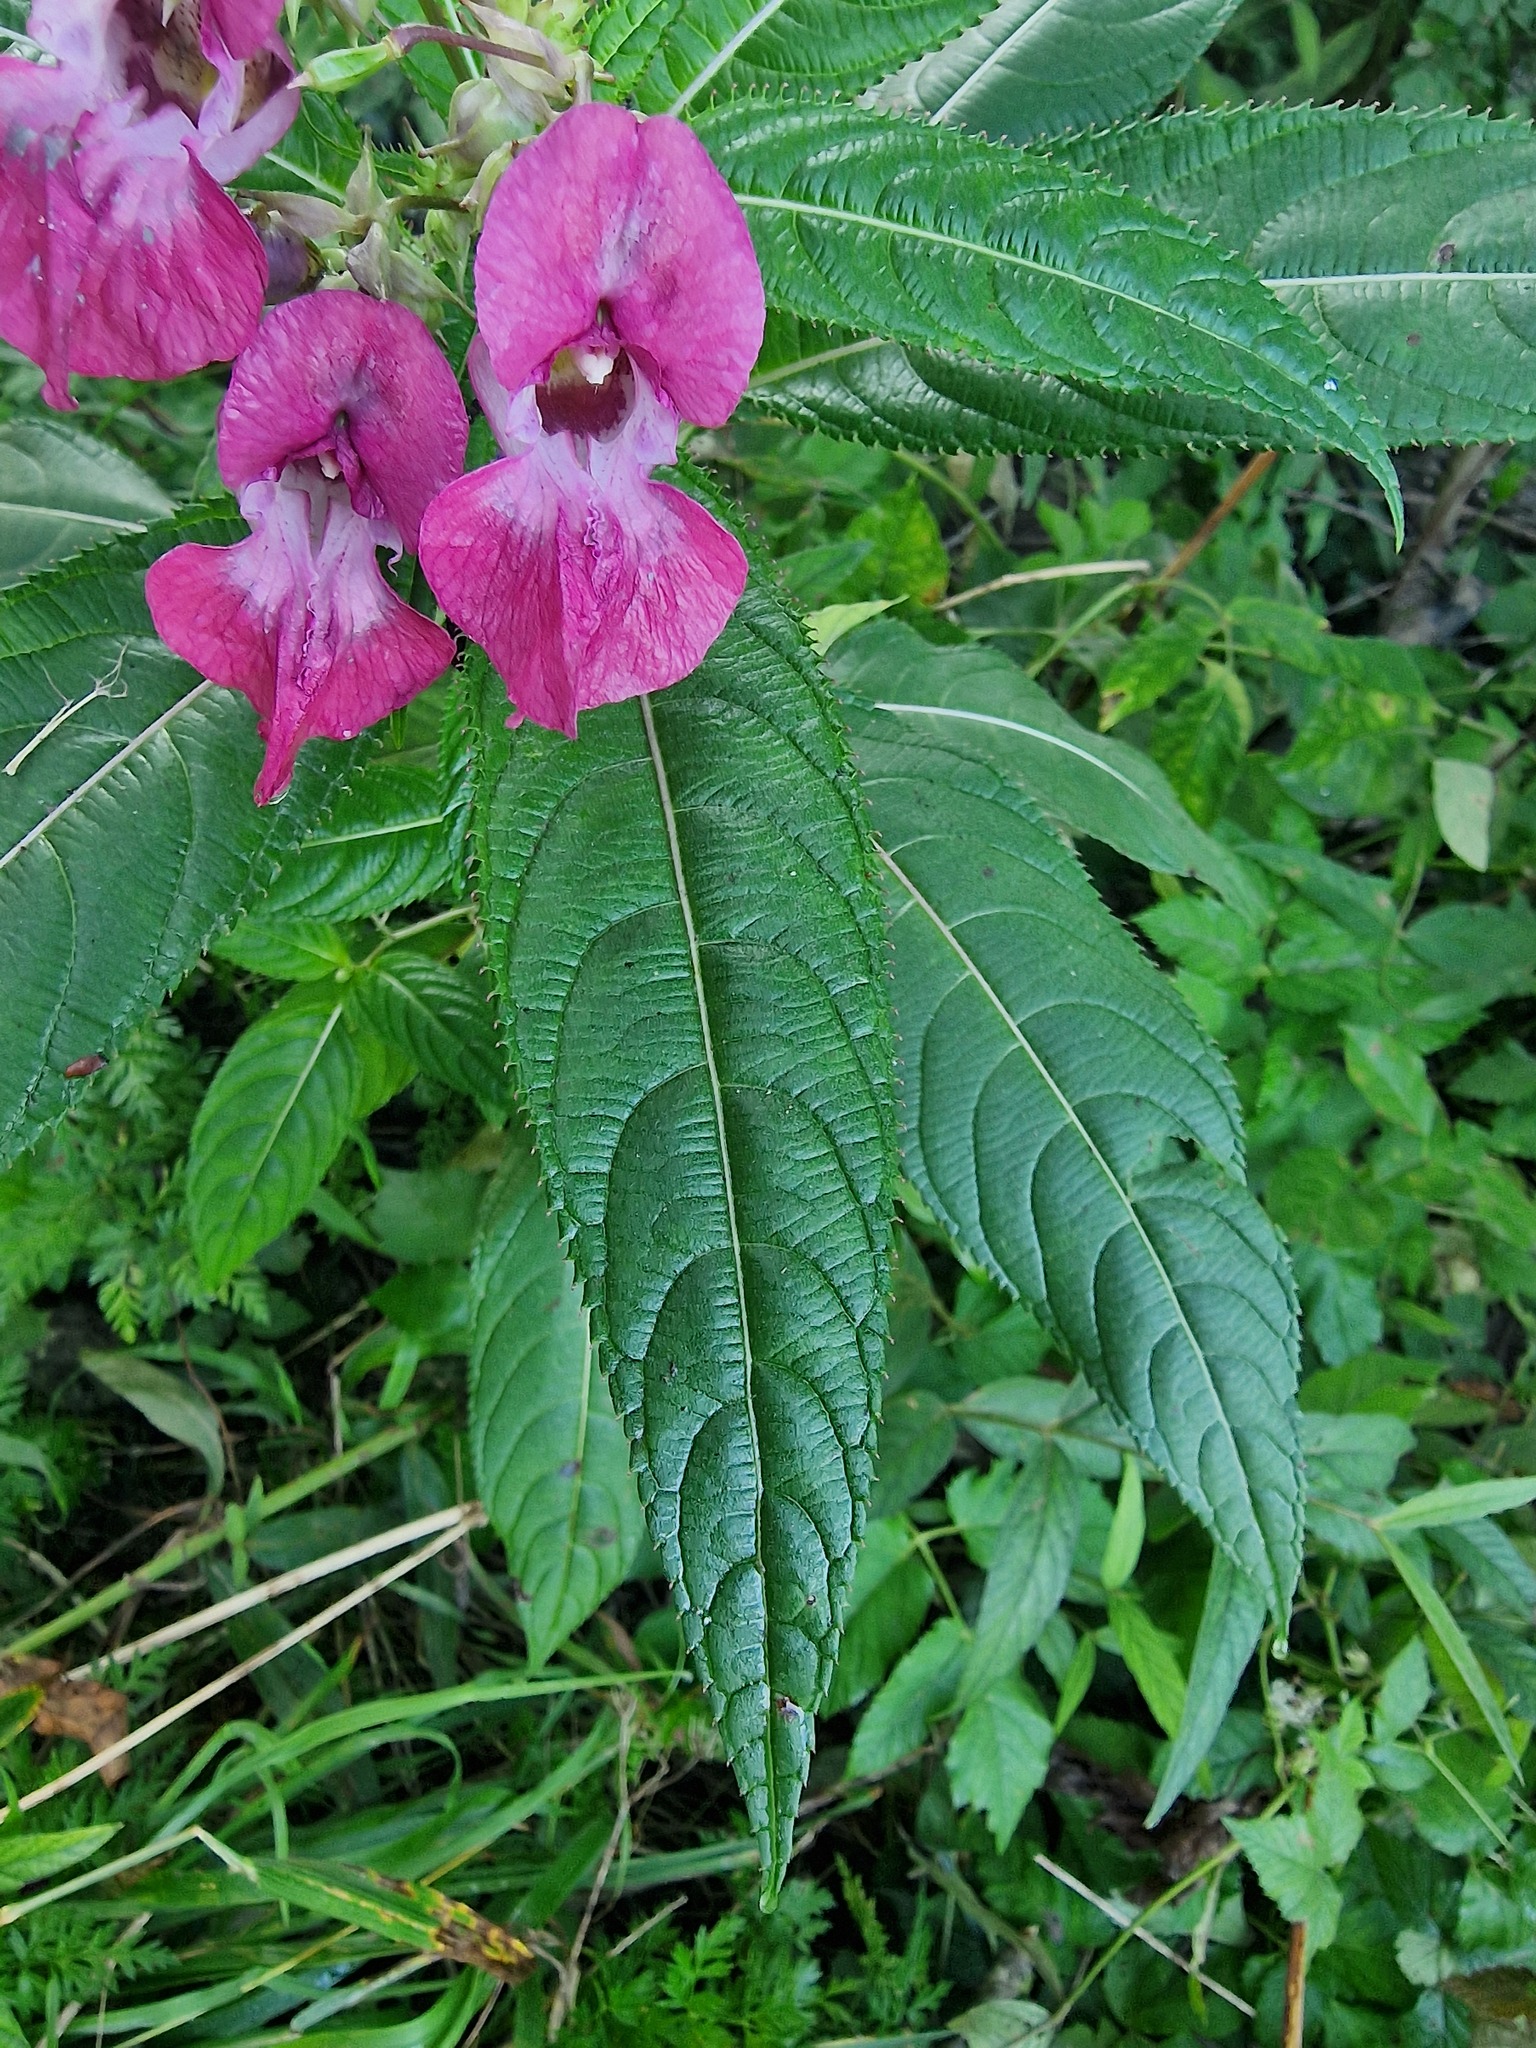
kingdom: Plantae
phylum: Tracheophyta
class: Magnoliopsida
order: Ericales
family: Balsaminaceae
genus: Impatiens
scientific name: Impatiens glandulifera
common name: Himalayan balsam
